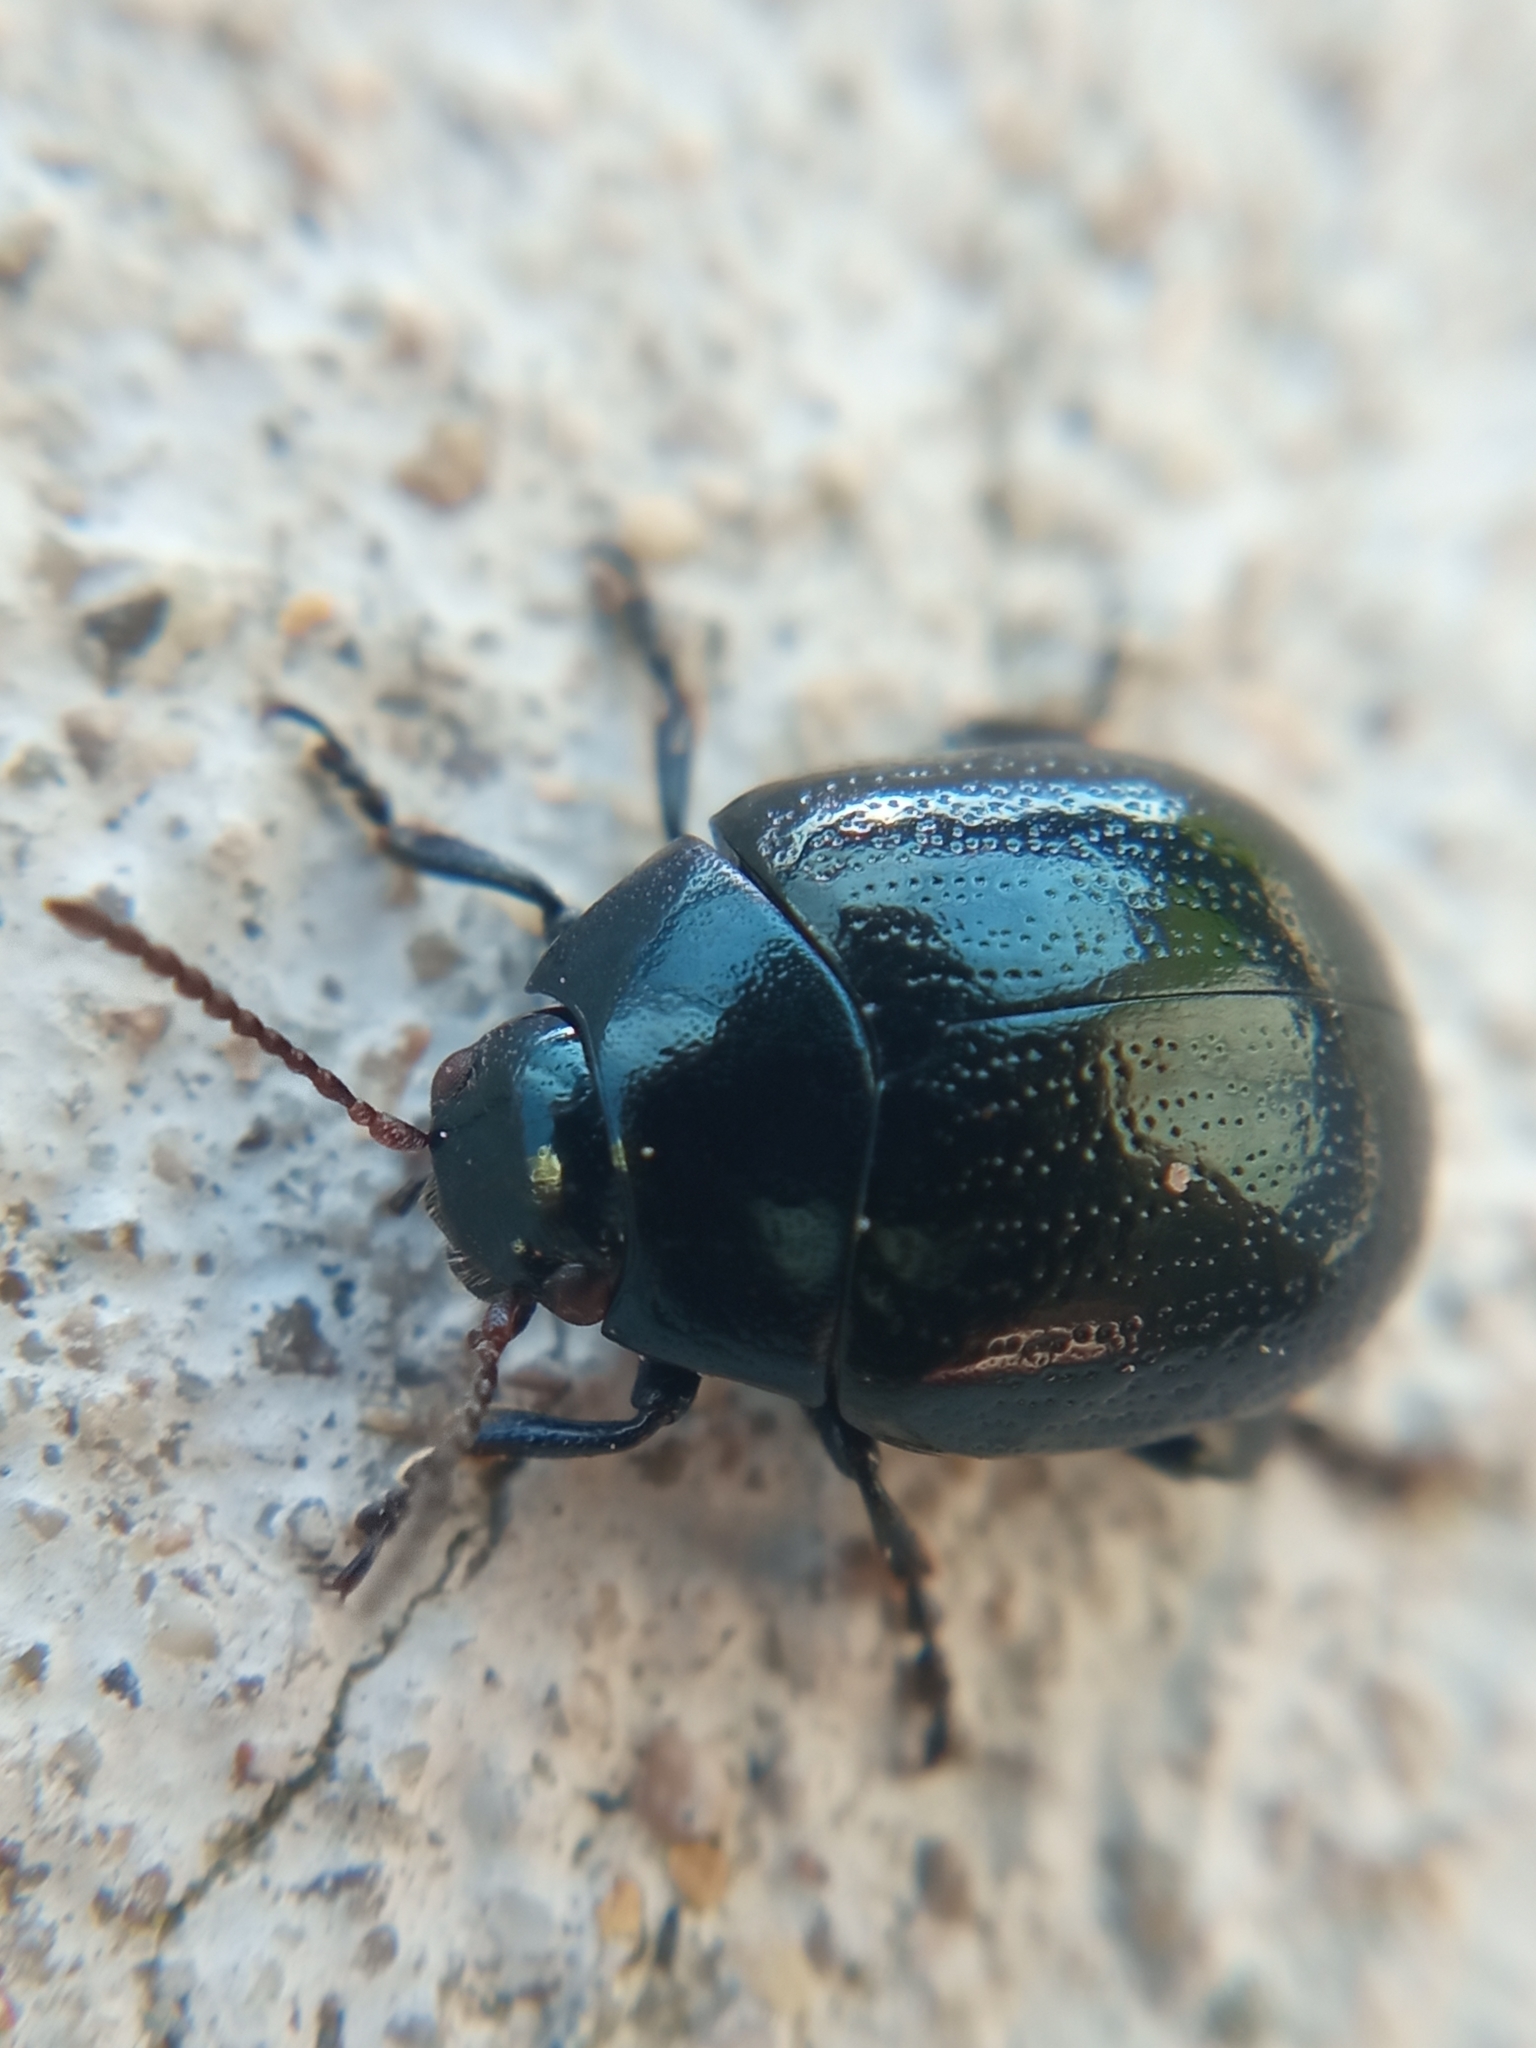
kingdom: Animalia
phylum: Arthropoda
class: Insecta
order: Coleoptera
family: Chrysomelidae
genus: Chrysolina
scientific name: Chrysolina haemoptera
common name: Plantain leaf beetle
